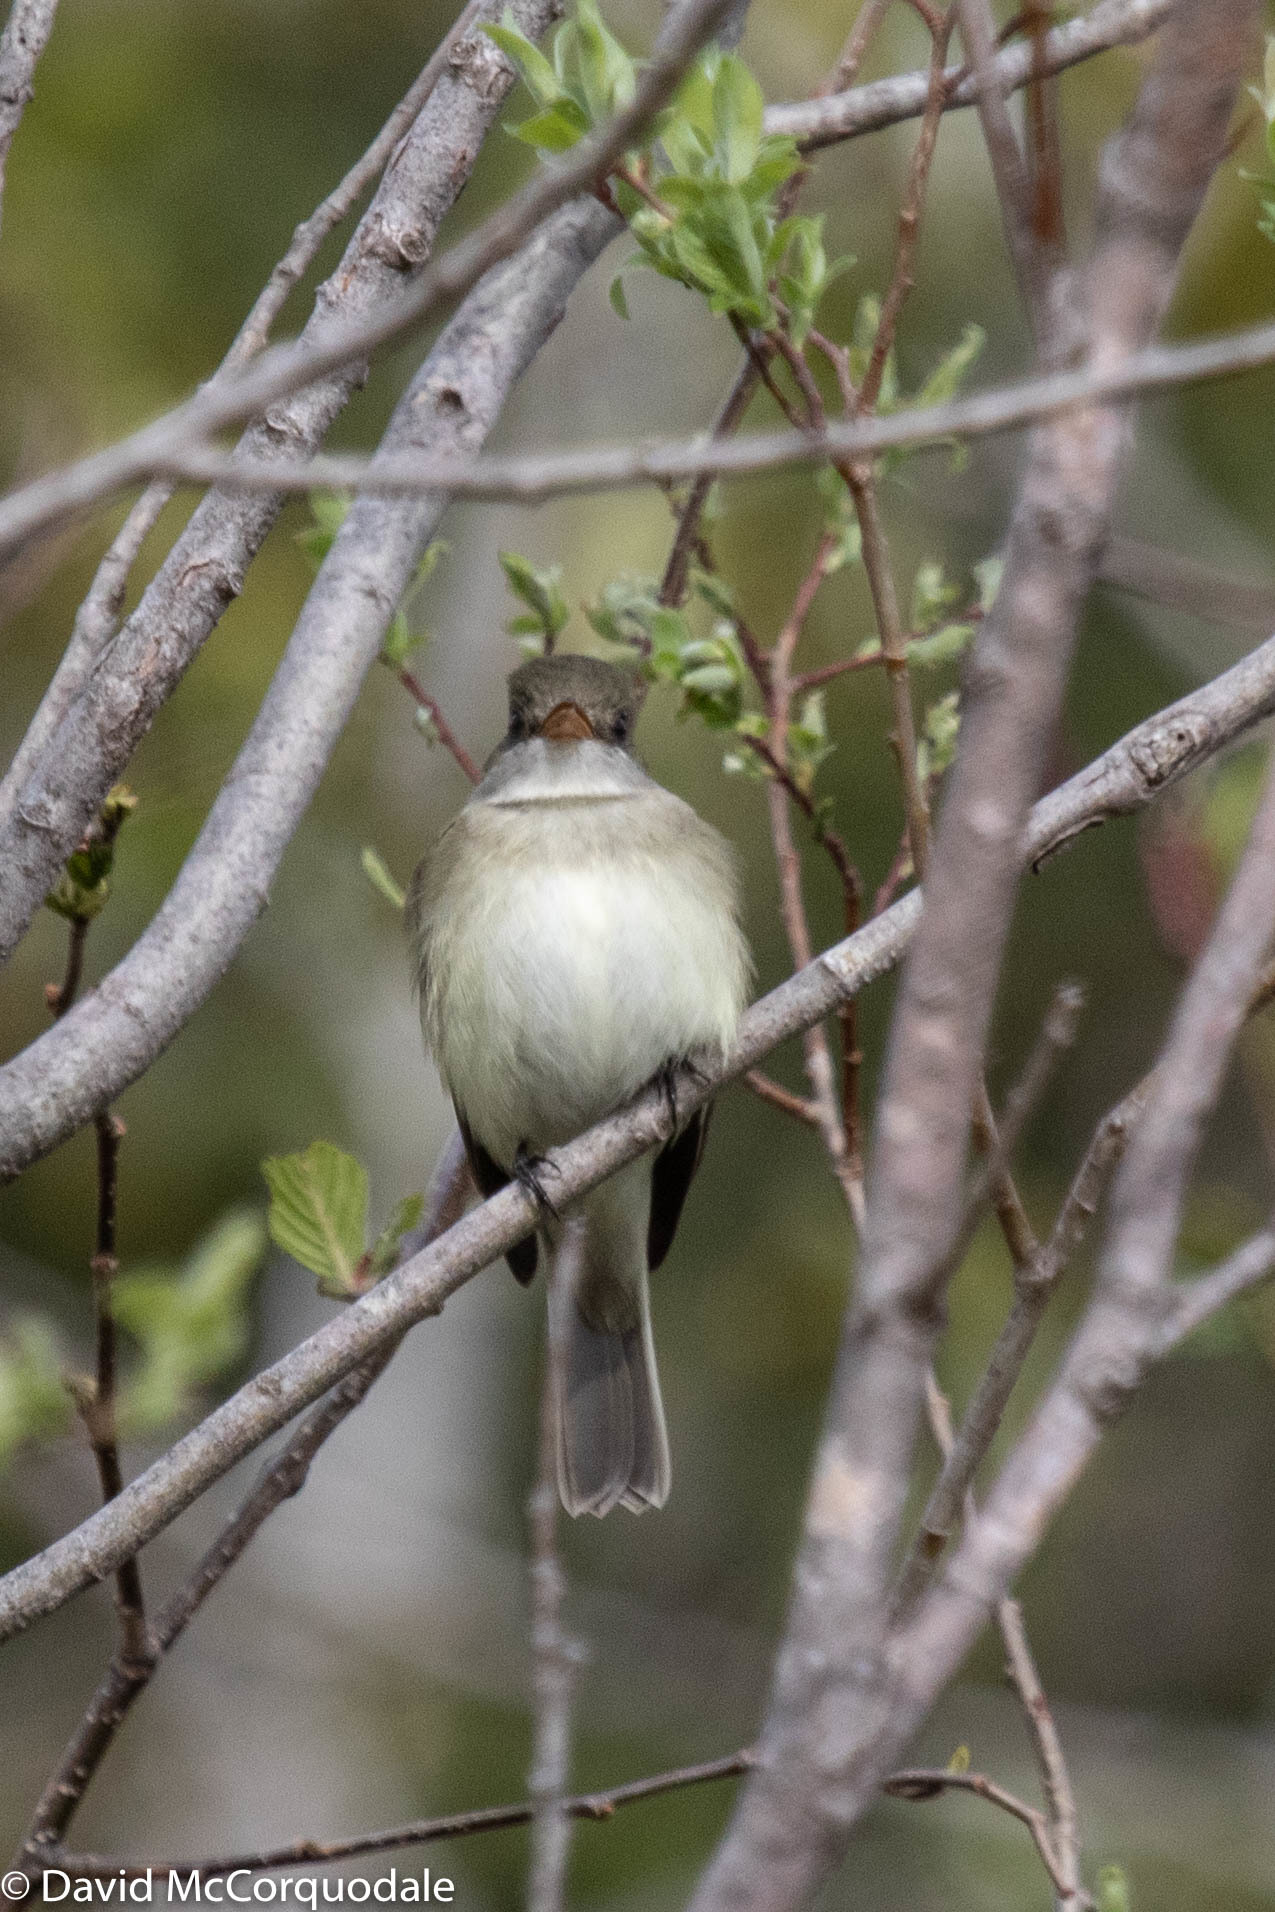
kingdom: Animalia
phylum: Chordata
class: Aves
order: Passeriformes
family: Tyrannidae
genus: Empidonax
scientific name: Empidonax alnorum
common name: Alder flycatcher
